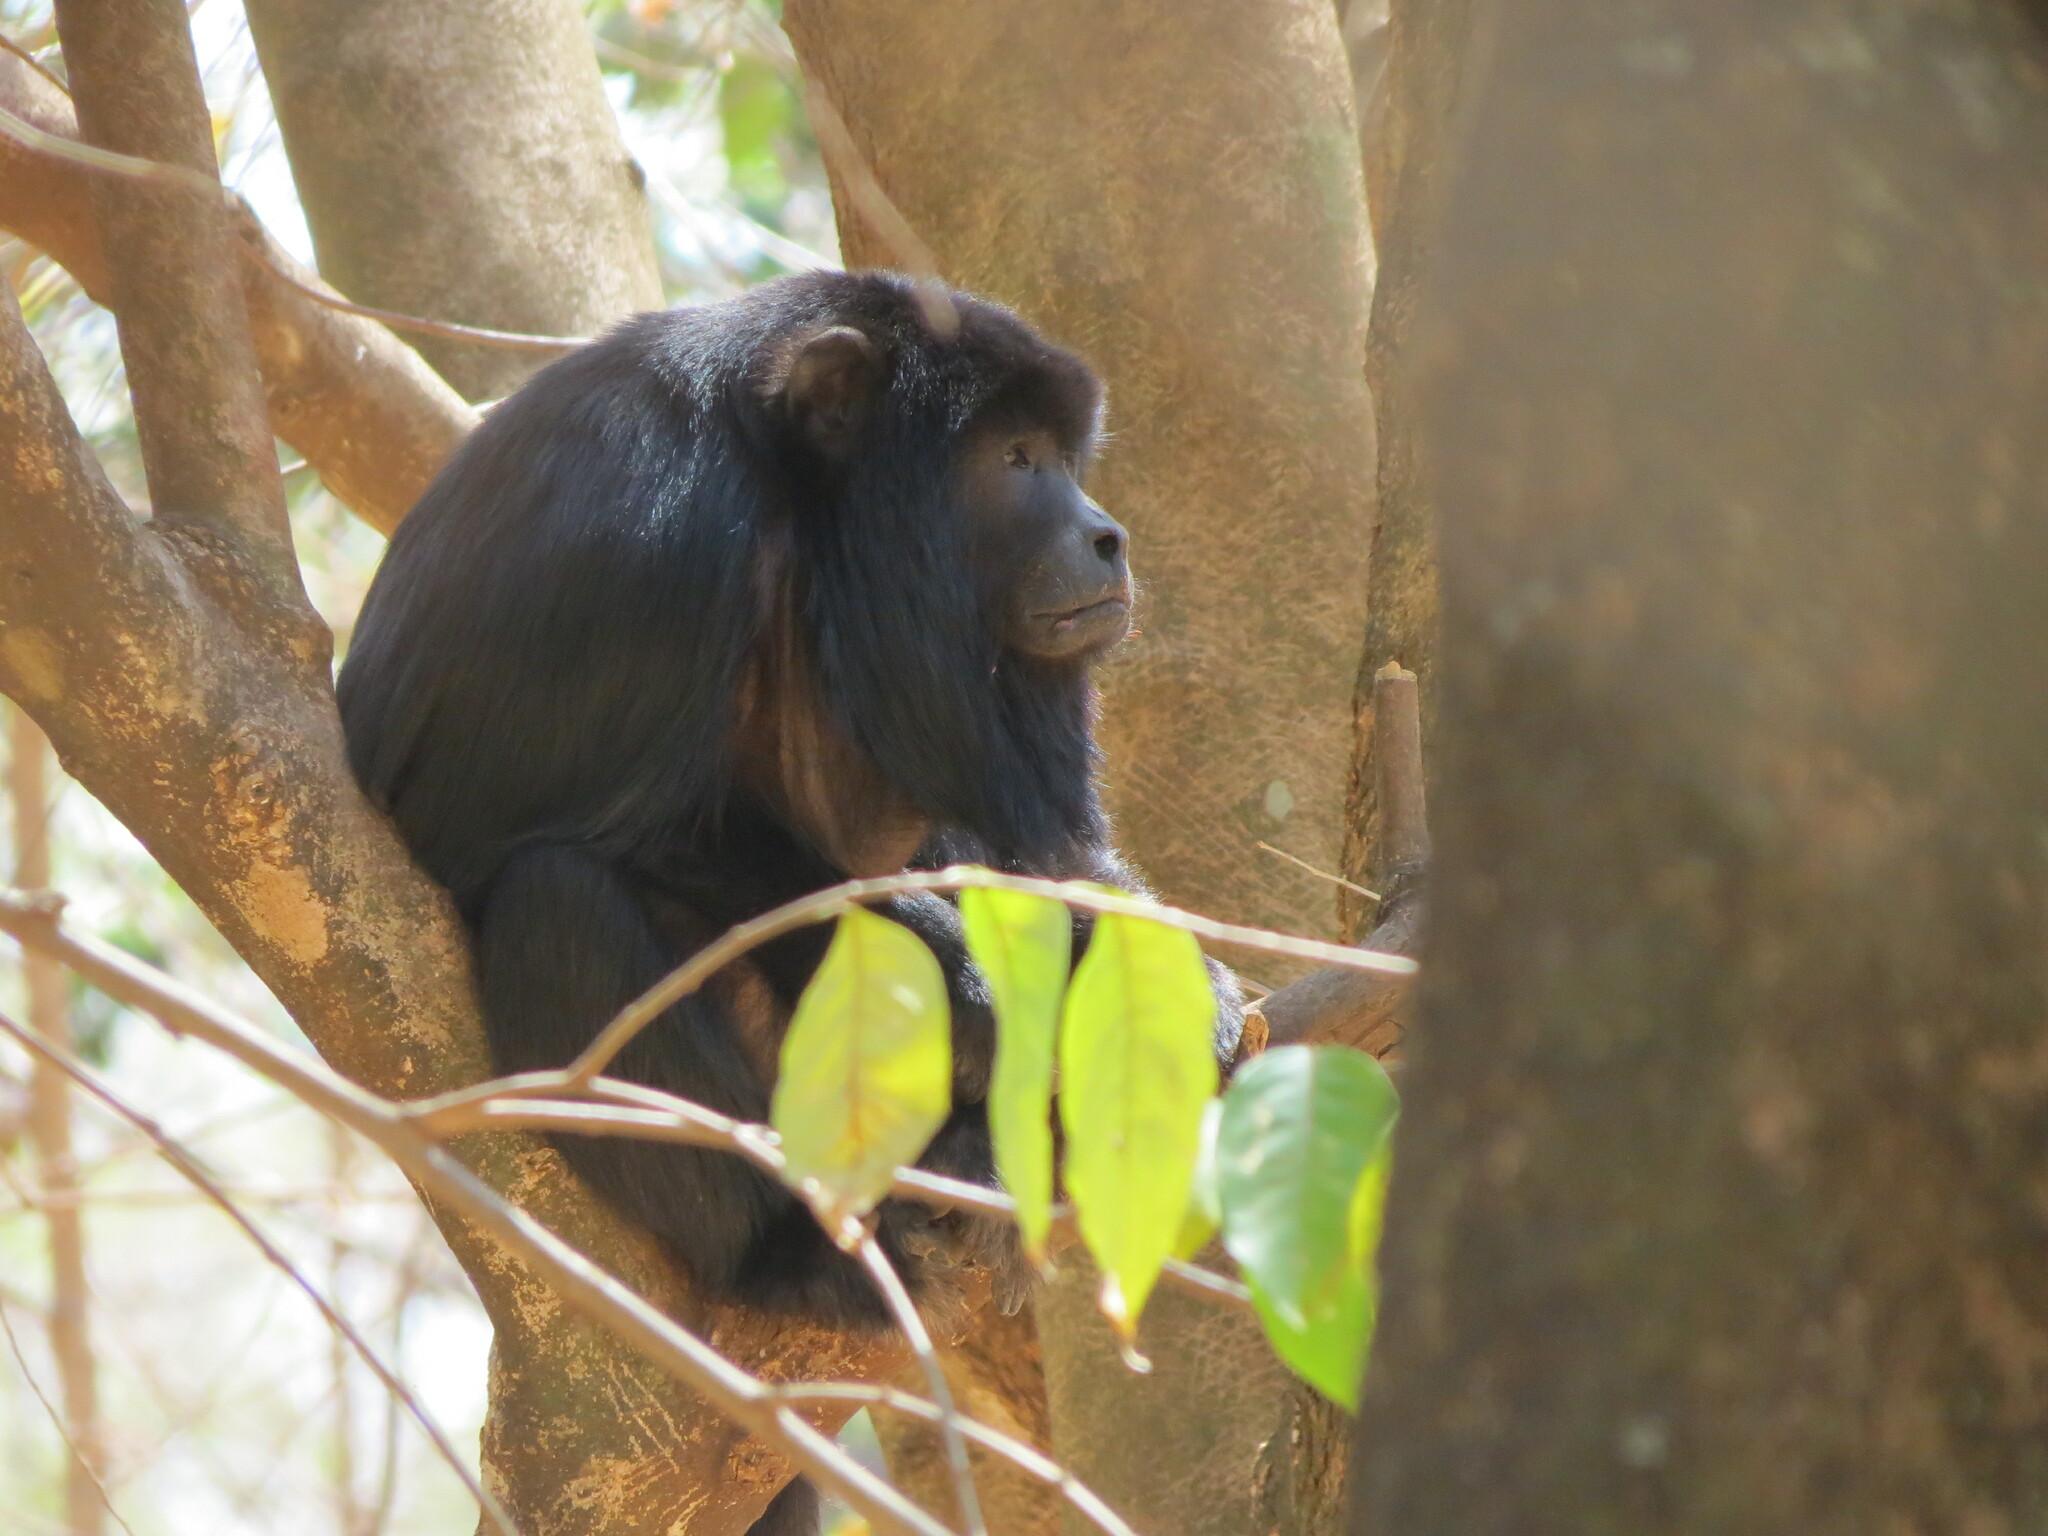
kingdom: Animalia
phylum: Chordata
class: Mammalia
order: Primates
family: Atelidae
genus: Alouatta
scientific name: Alouatta caraya
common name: Black howler
